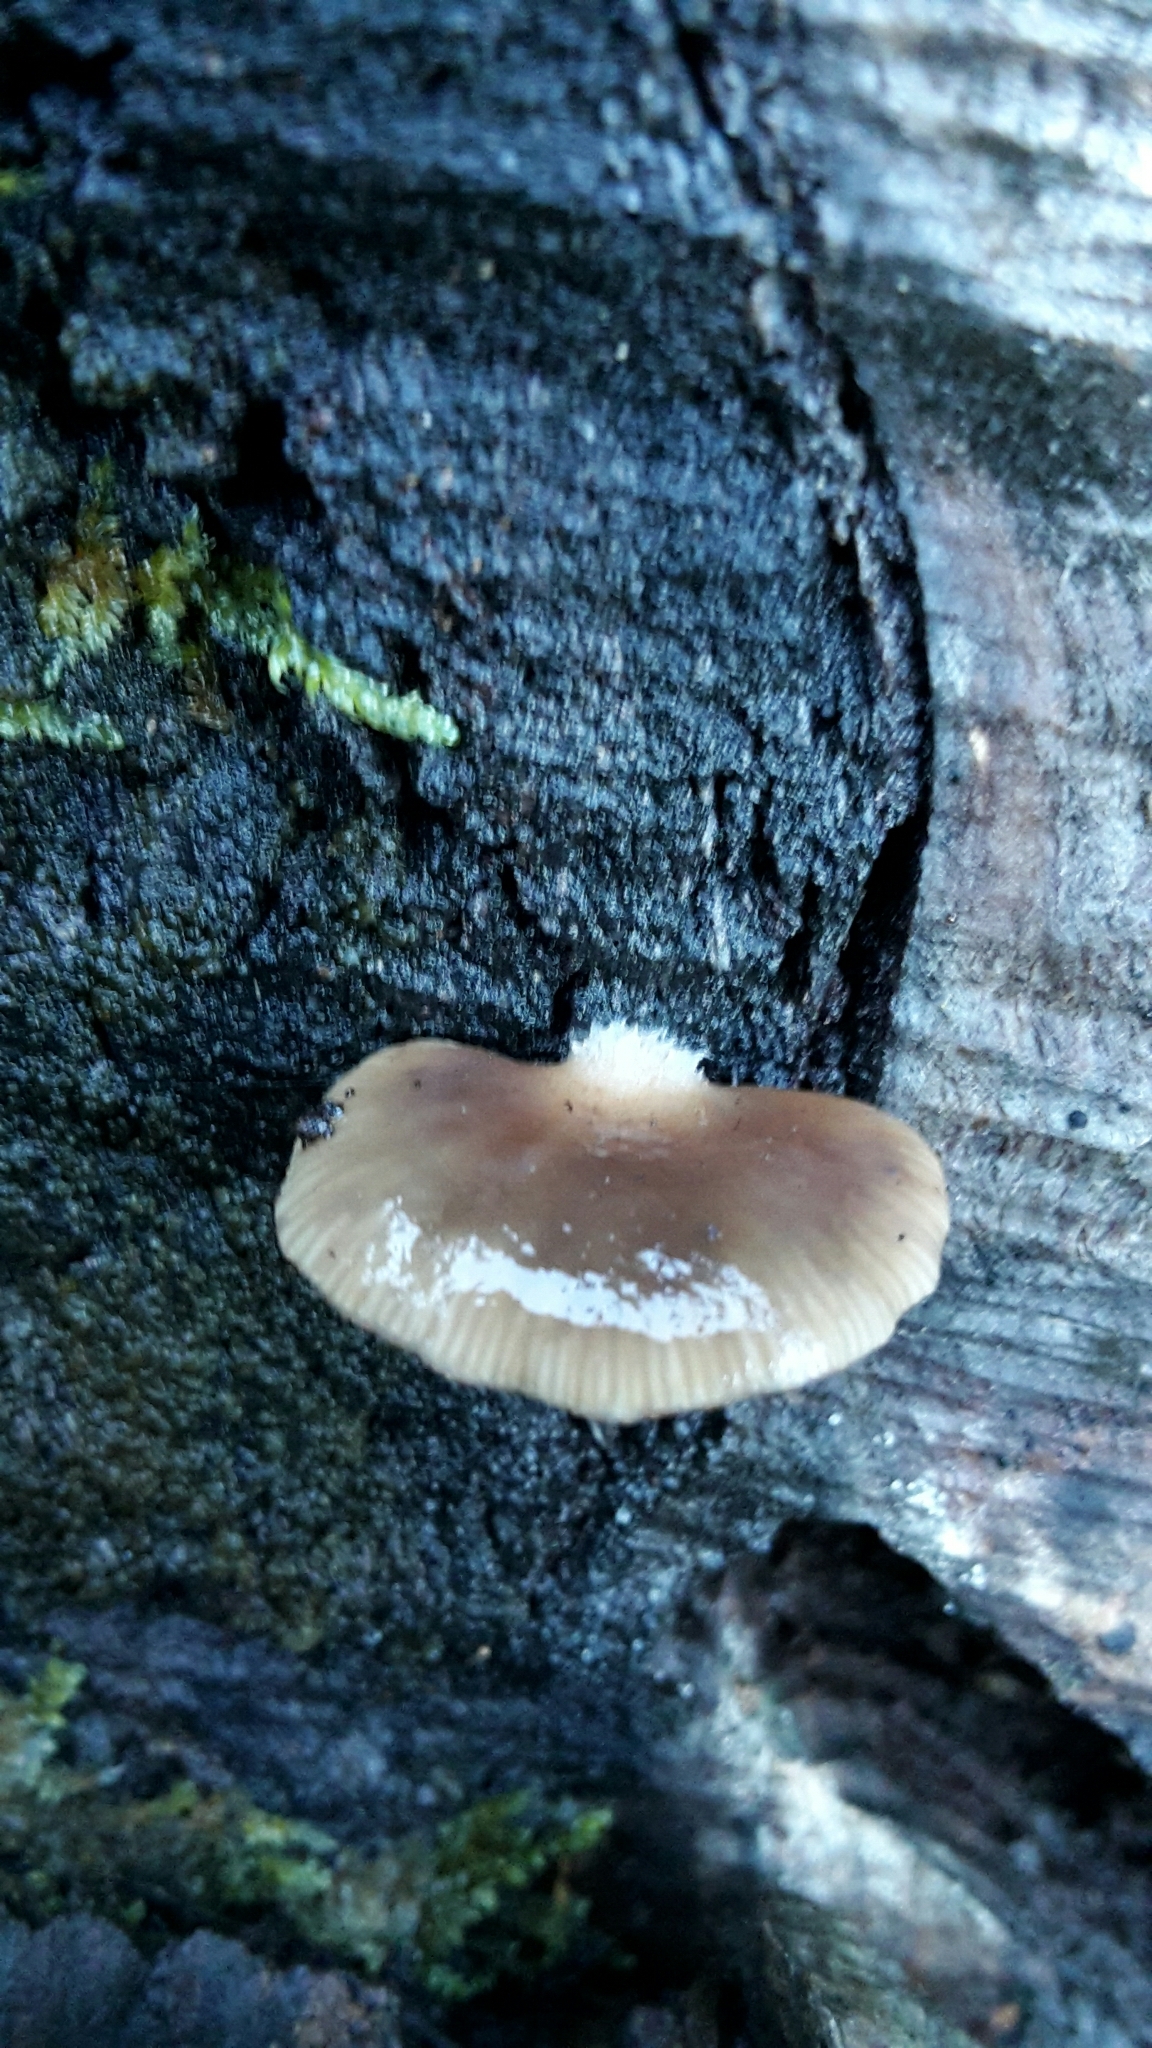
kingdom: Fungi
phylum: Basidiomycota
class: Agaricomycetes
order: Agaricales
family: Mycenaceae
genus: Panellus
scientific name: Panellus longinquus
